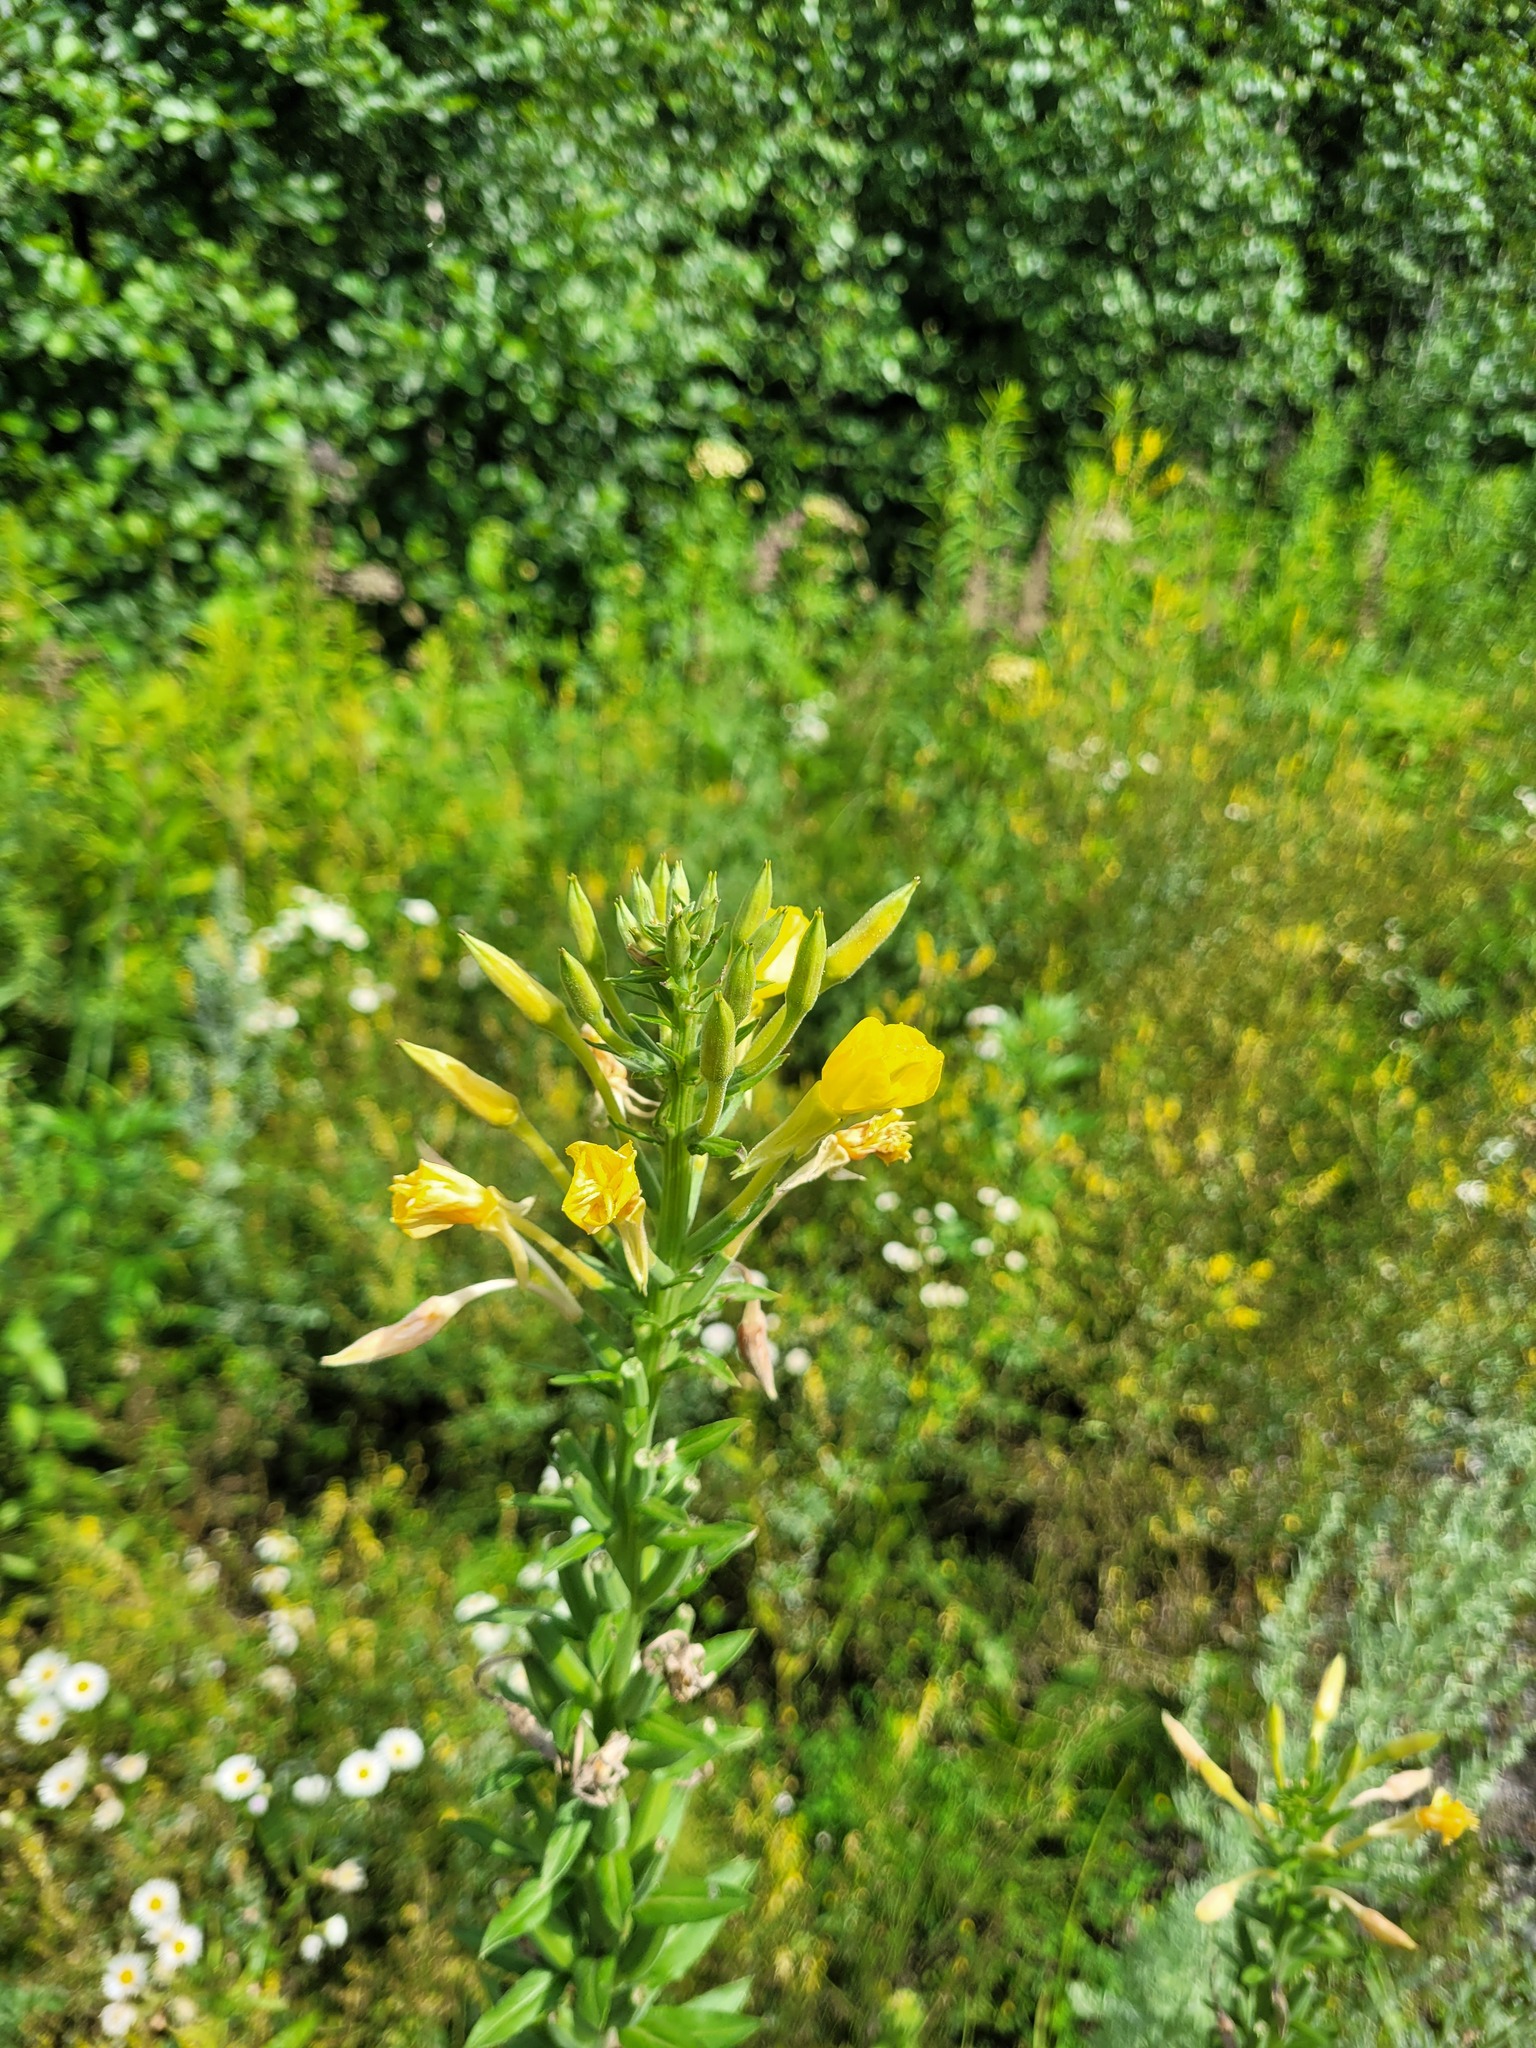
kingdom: Plantae
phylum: Tracheophyta
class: Magnoliopsida
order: Myrtales
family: Onagraceae
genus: Oenothera
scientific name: Oenothera biennis
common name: Common evening-primrose
